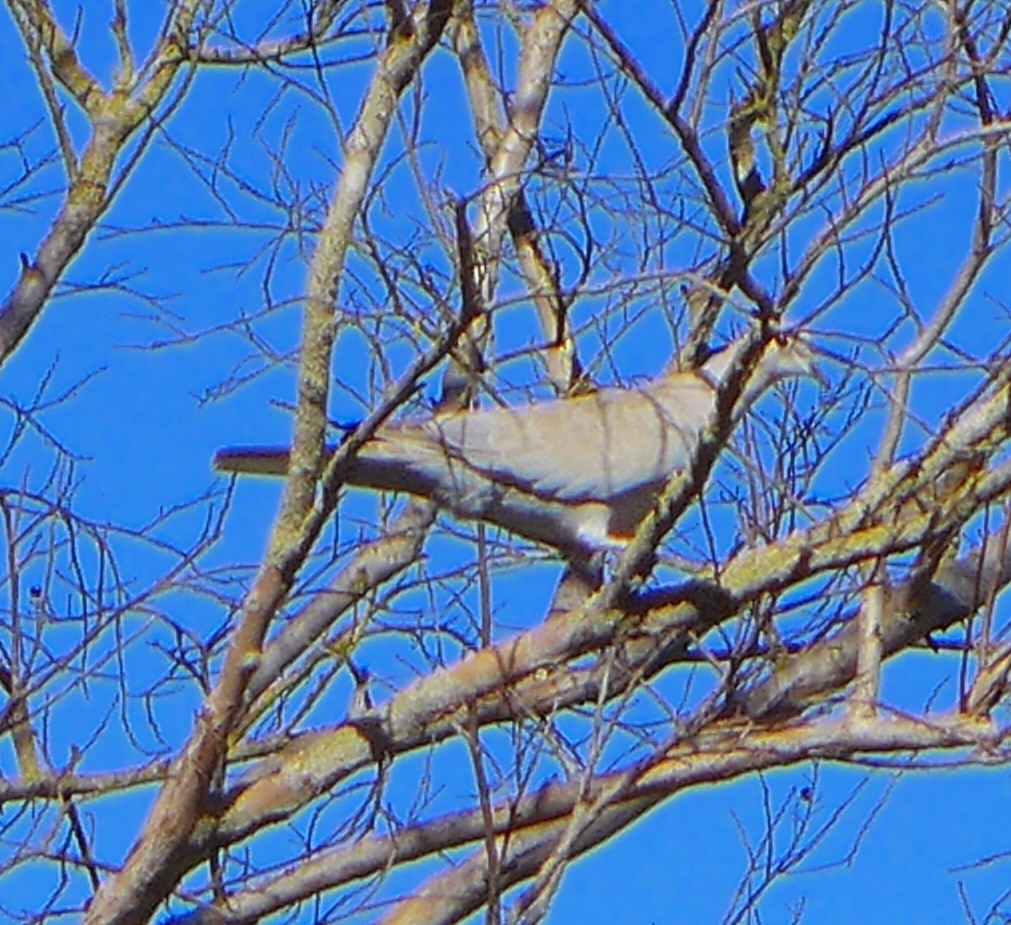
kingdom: Animalia
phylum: Chordata
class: Aves
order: Columbiformes
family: Columbidae
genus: Streptopelia
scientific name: Streptopelia decaocto
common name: Eurasian collared dove
